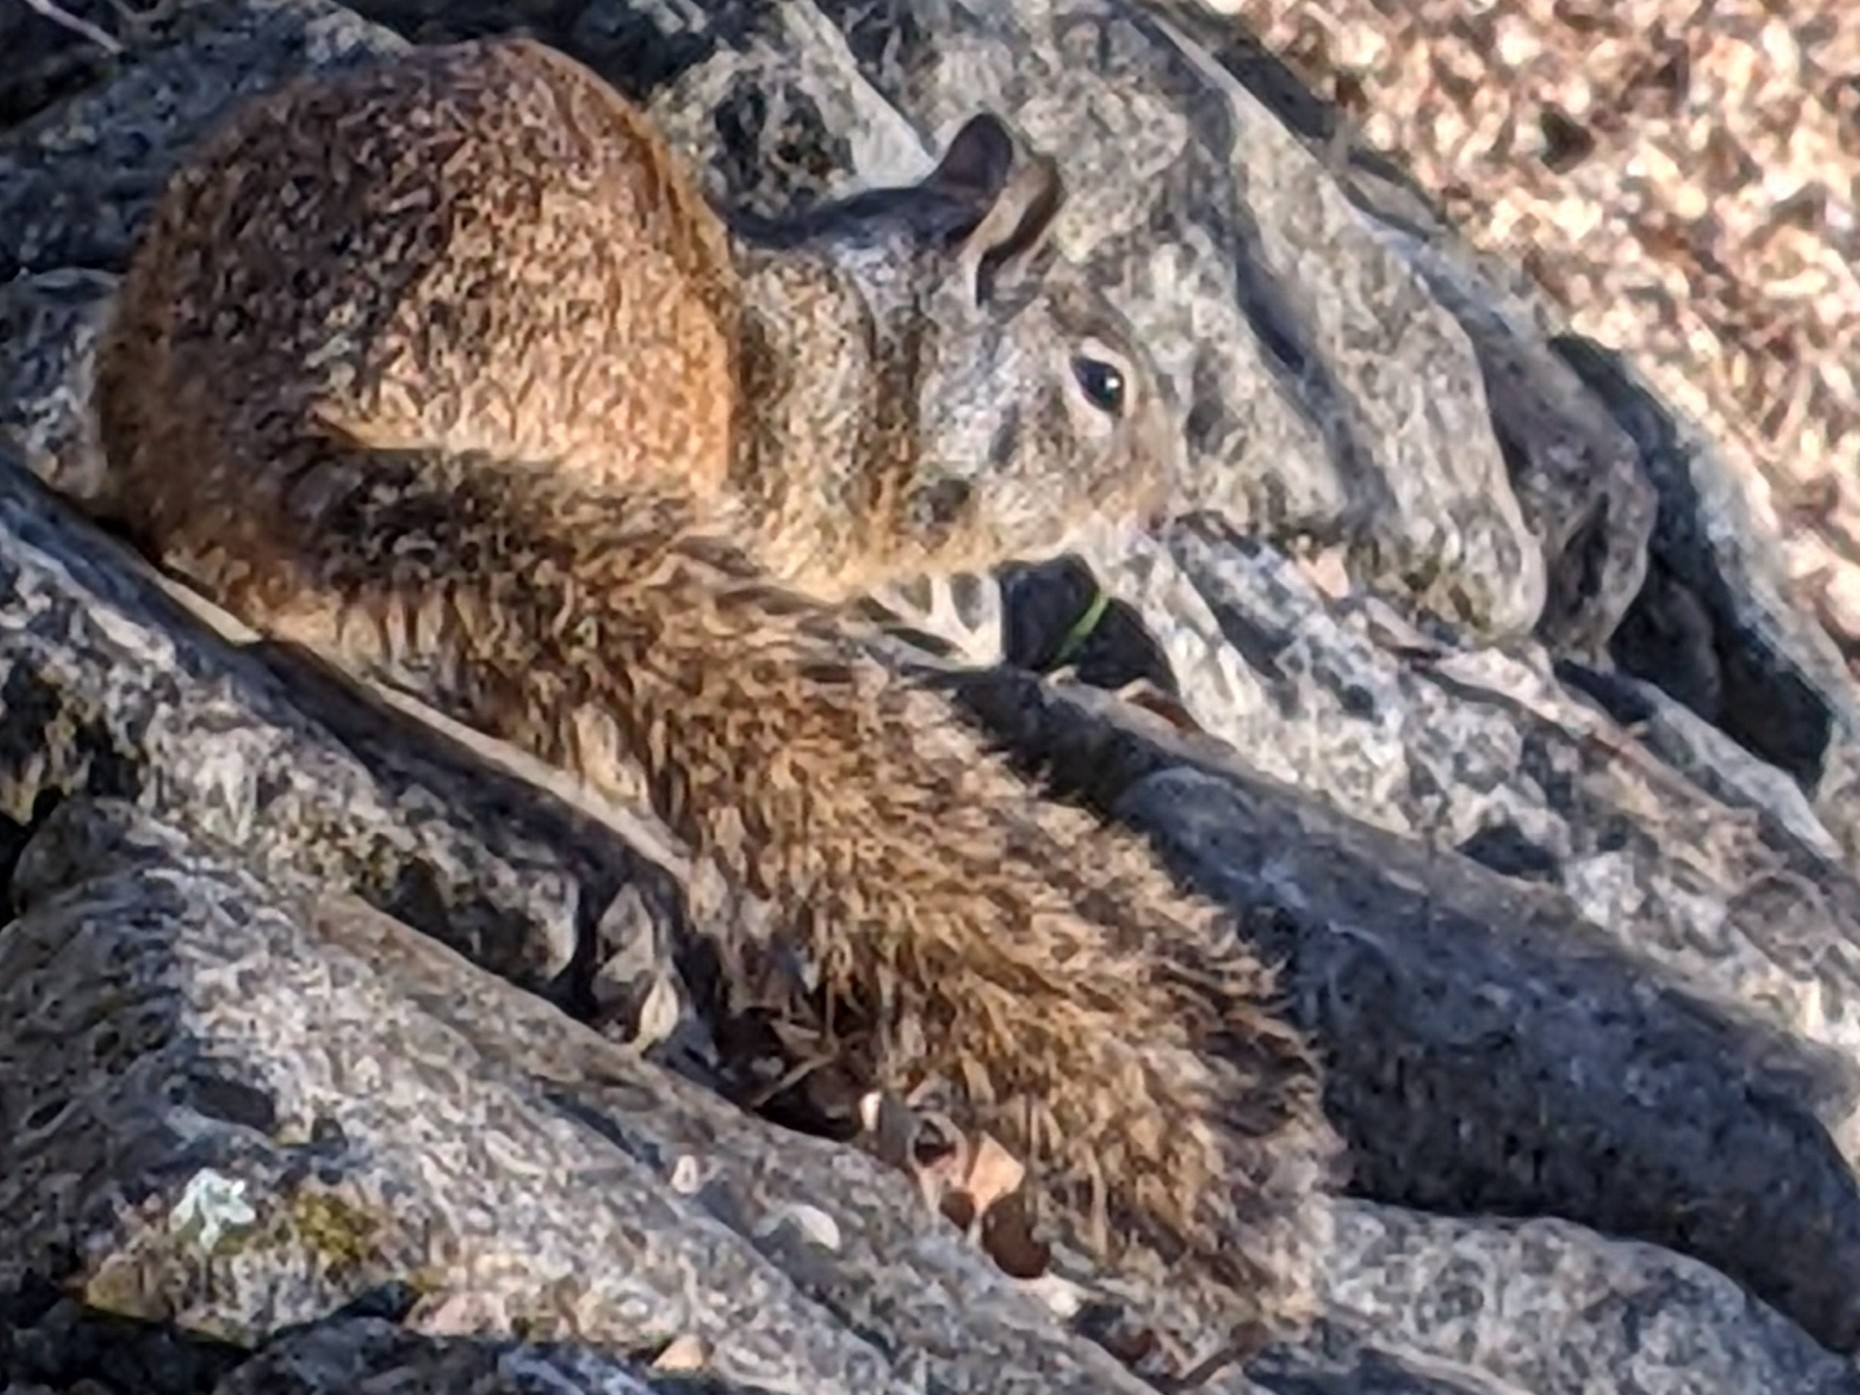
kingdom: Animalia
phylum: Chordata
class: Mammalia
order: Rodentia
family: Sciuridae
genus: Otospermophilus
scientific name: Otospermophilus beecheyi
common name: California ground squirrel
